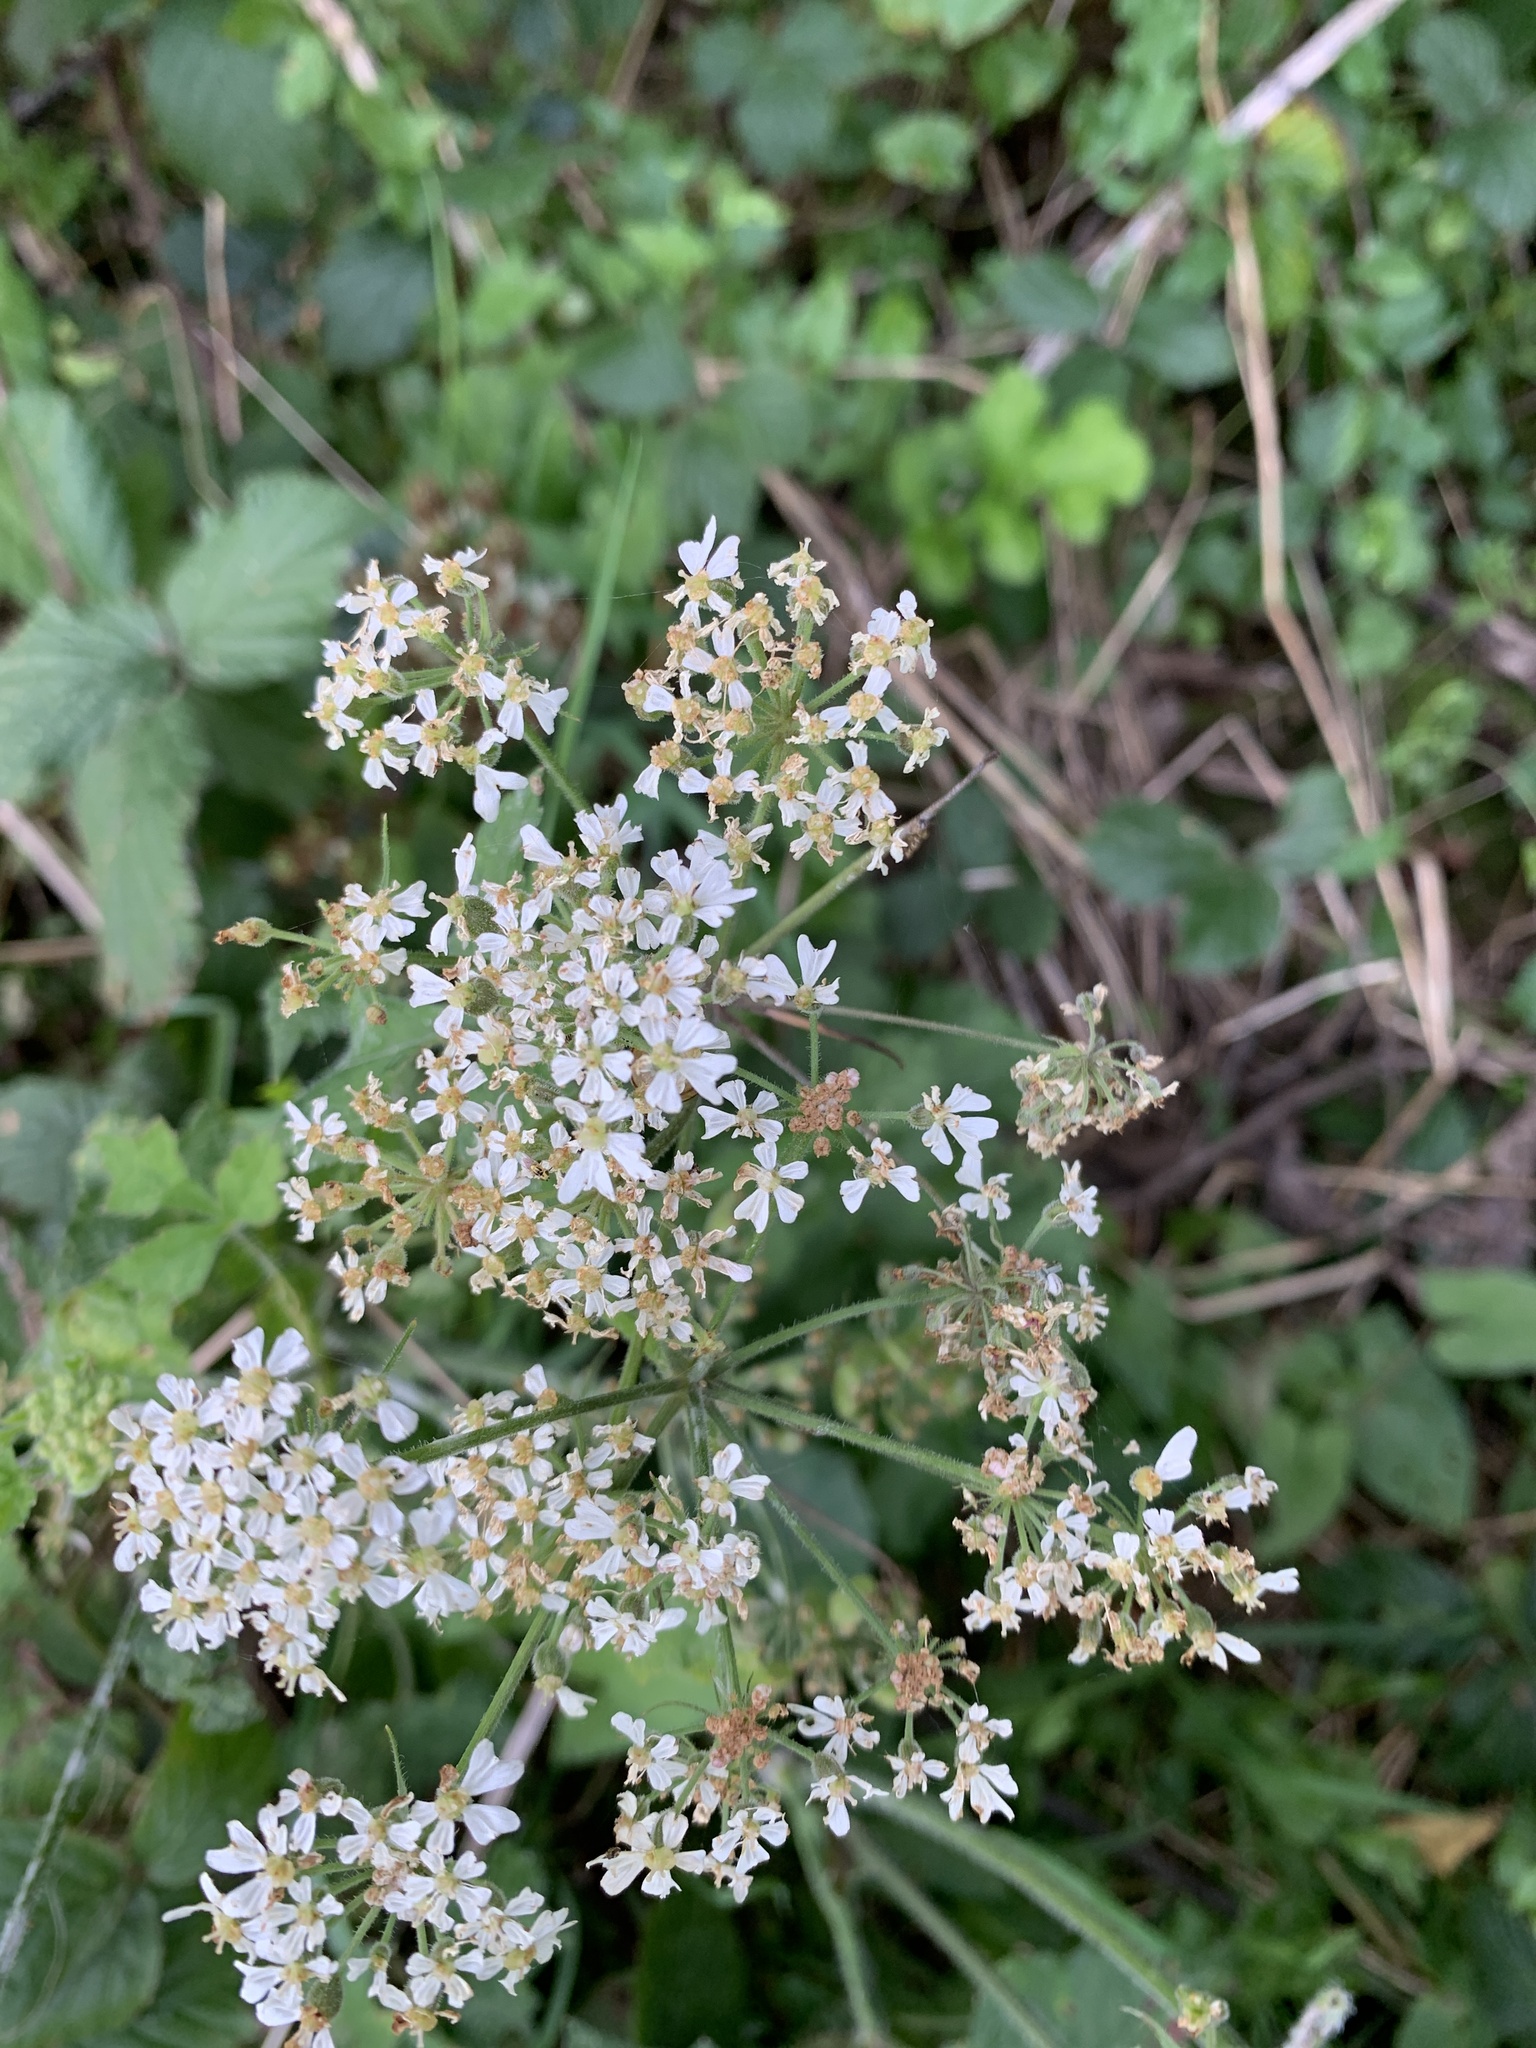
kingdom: Plantae
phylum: Tracheophyta
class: Magnoliopsida
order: Apiales
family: Apiaceae
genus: Heracleum
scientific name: Heracleum sphondylium
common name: Hogweed
